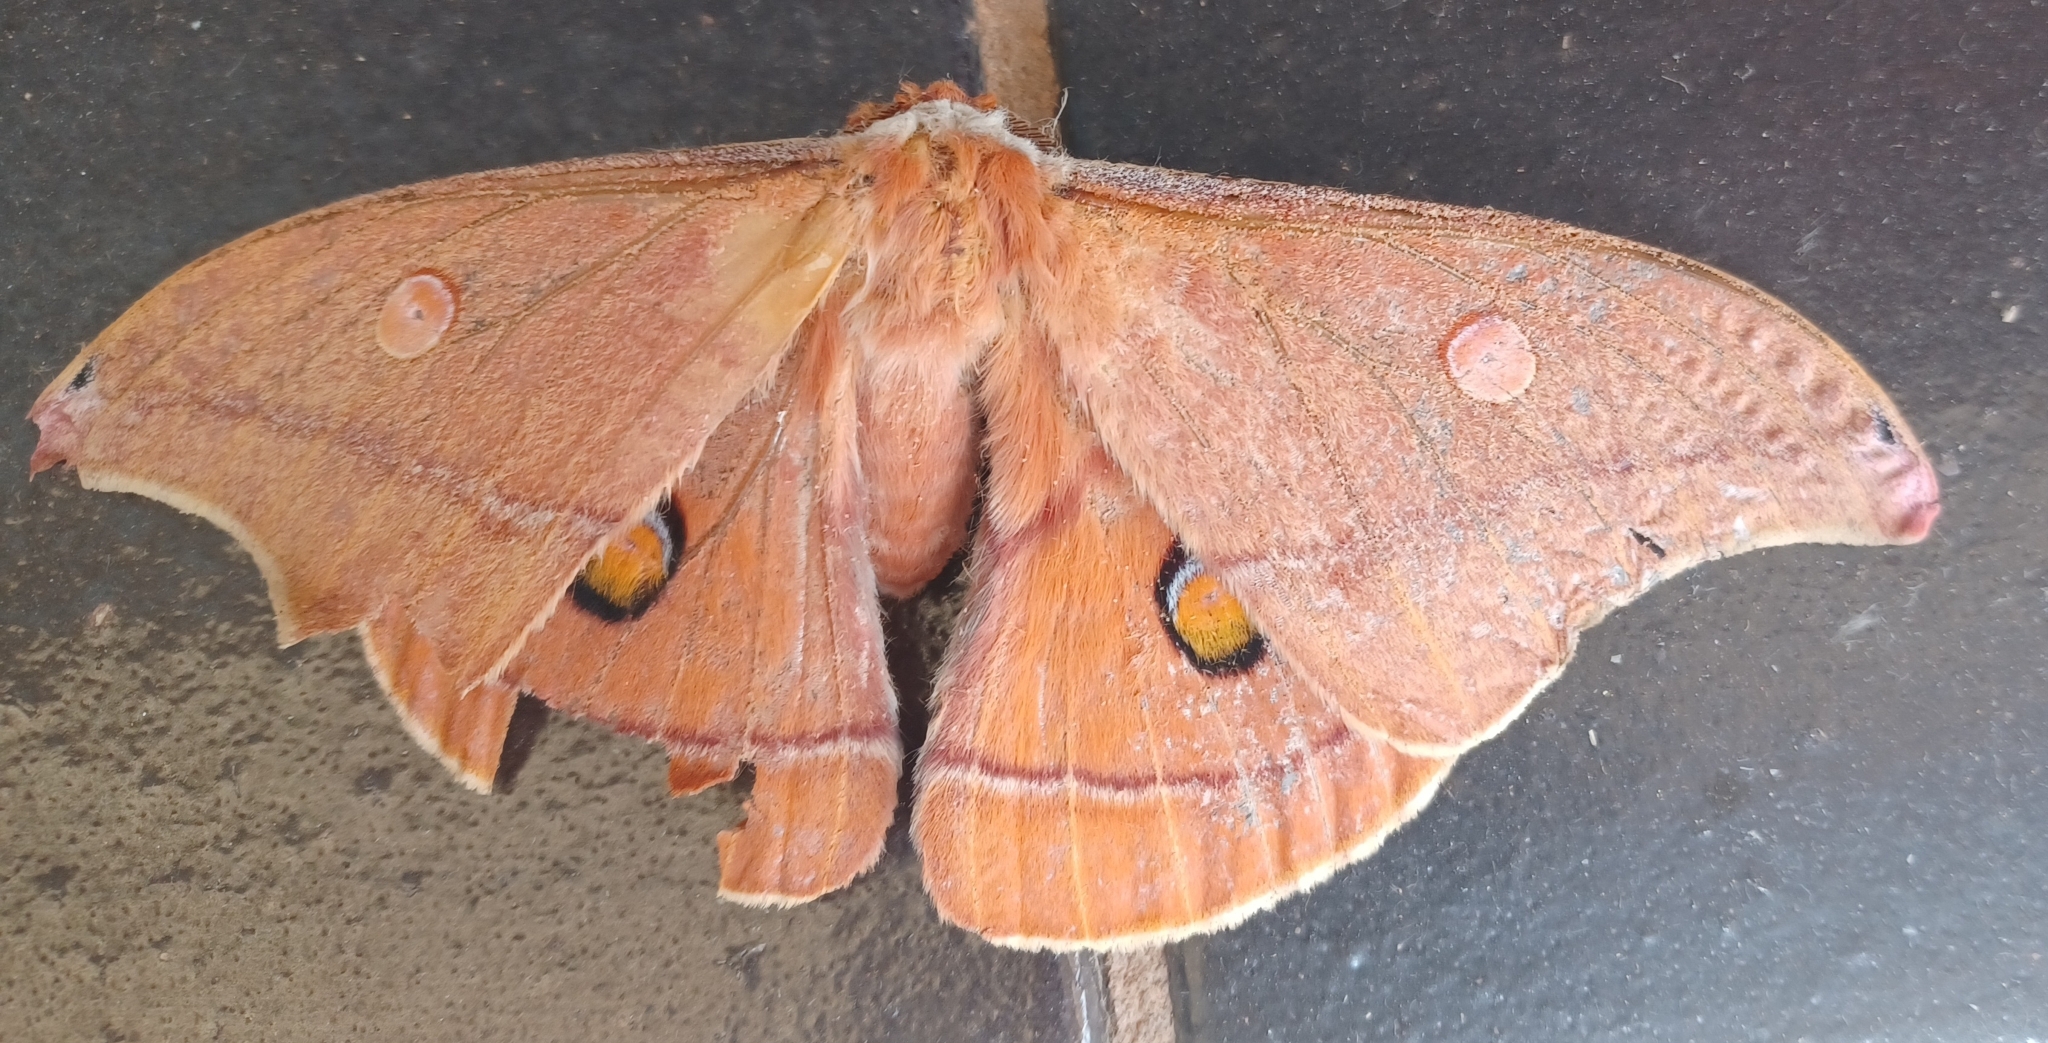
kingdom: Animalia
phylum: Arthropoda
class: Insecta
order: Lepidoptera
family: Saturniidae
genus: Opodiphthera
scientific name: Opodiphthera
